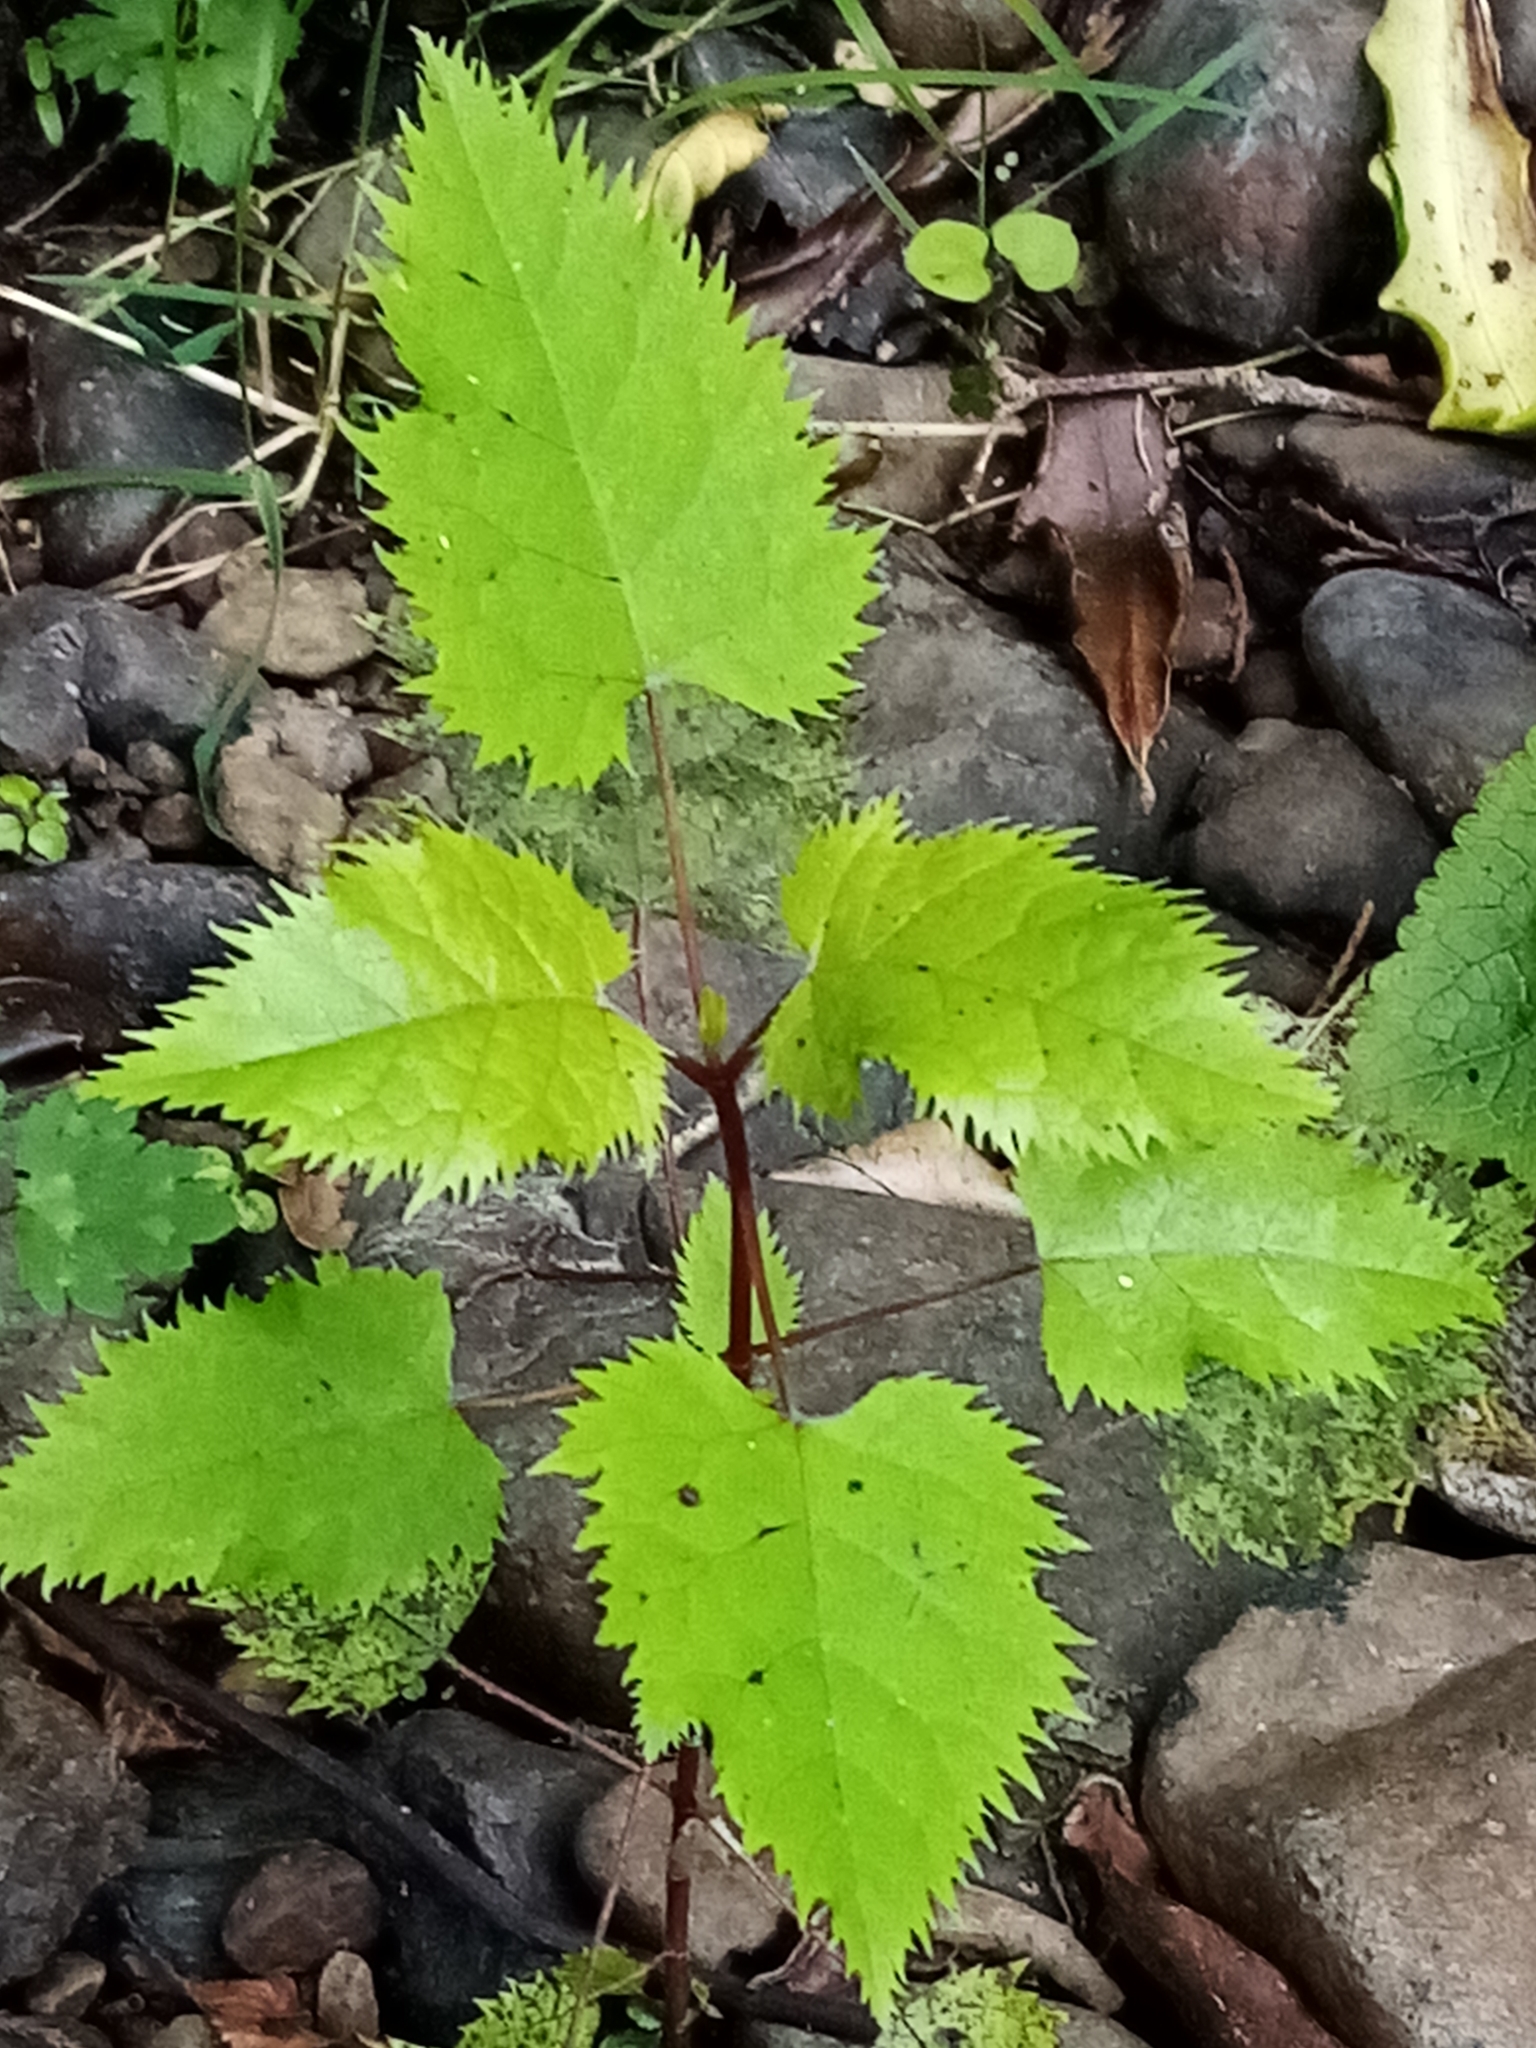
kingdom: Plantae
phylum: Tracheophyta
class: Magnoliopsida
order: Oxalidales
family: Elaeocarpaceae
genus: Aristotelia
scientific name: Aristotelia serrata
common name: New zealand wineberry
